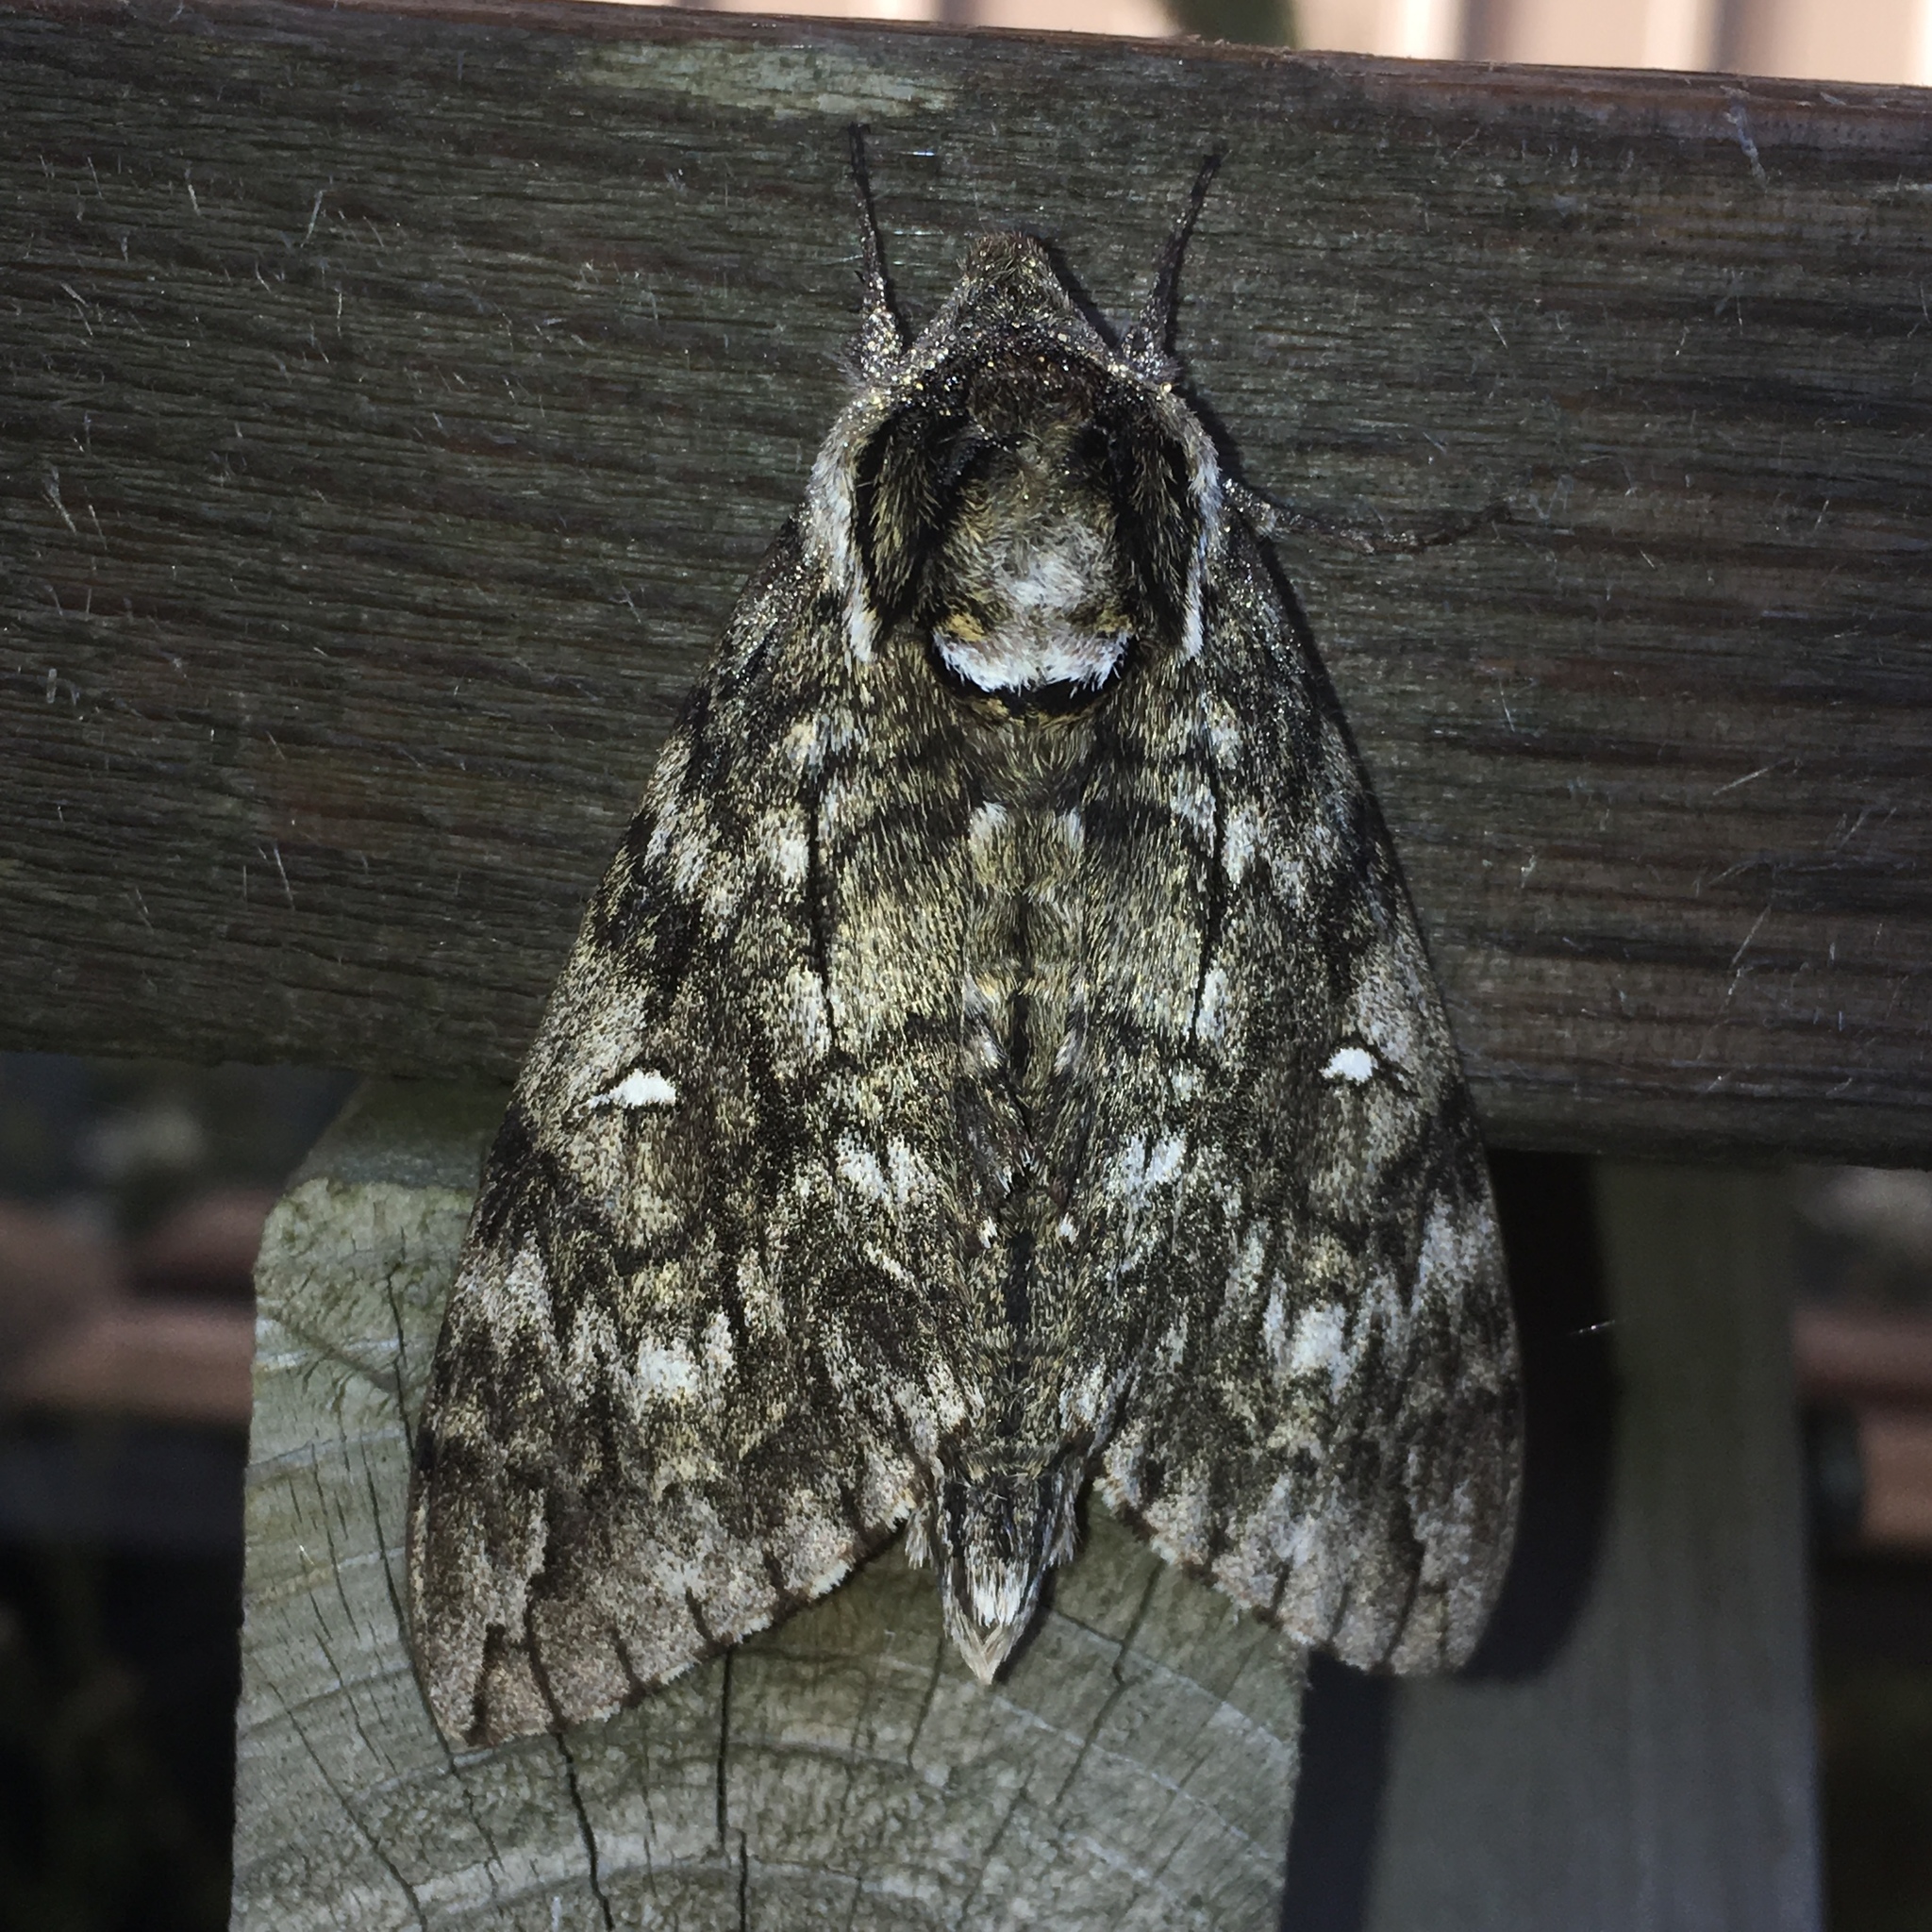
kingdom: Animalia
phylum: Arthropoda
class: Insecta
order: Lepidoptera
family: Sphingidae
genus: Ceratomia
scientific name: Ceratomia undulosa
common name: Waved sphinx
